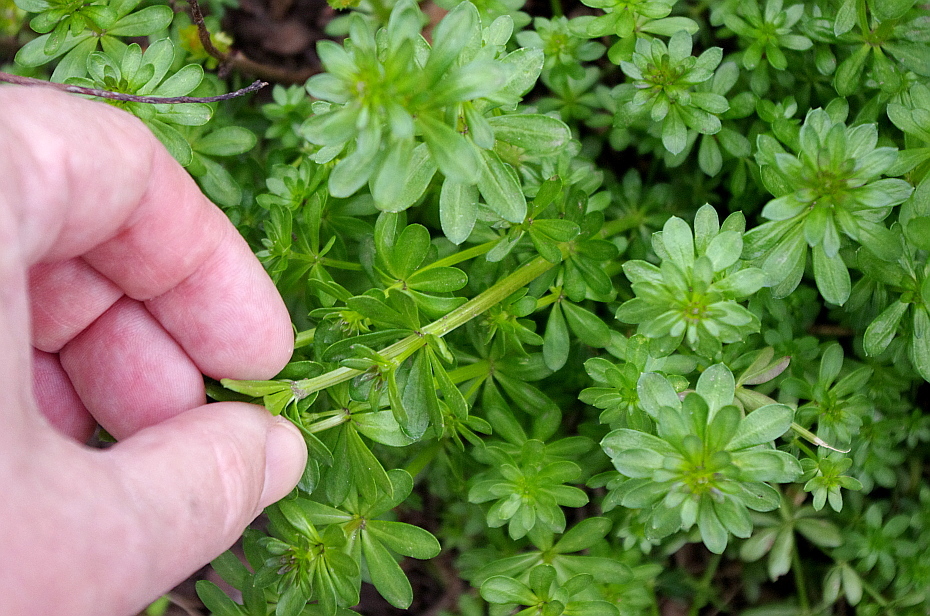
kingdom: Plantae
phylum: Tracheophyta
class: Magnoliopsida
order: Gentianales
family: Rubiaceae
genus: Galium
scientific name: Galium mollugo
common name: Hedge bedstraw
